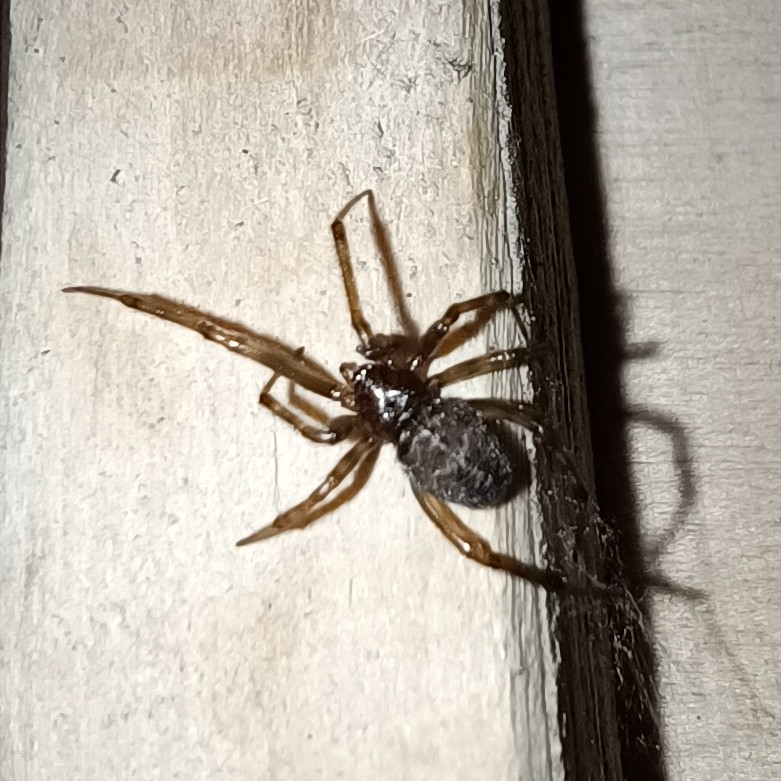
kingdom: Animalia
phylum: Arthropoda
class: Arachnida
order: Araneae
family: Theridiidae
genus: Steatoda
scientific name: Steatoda castanea
